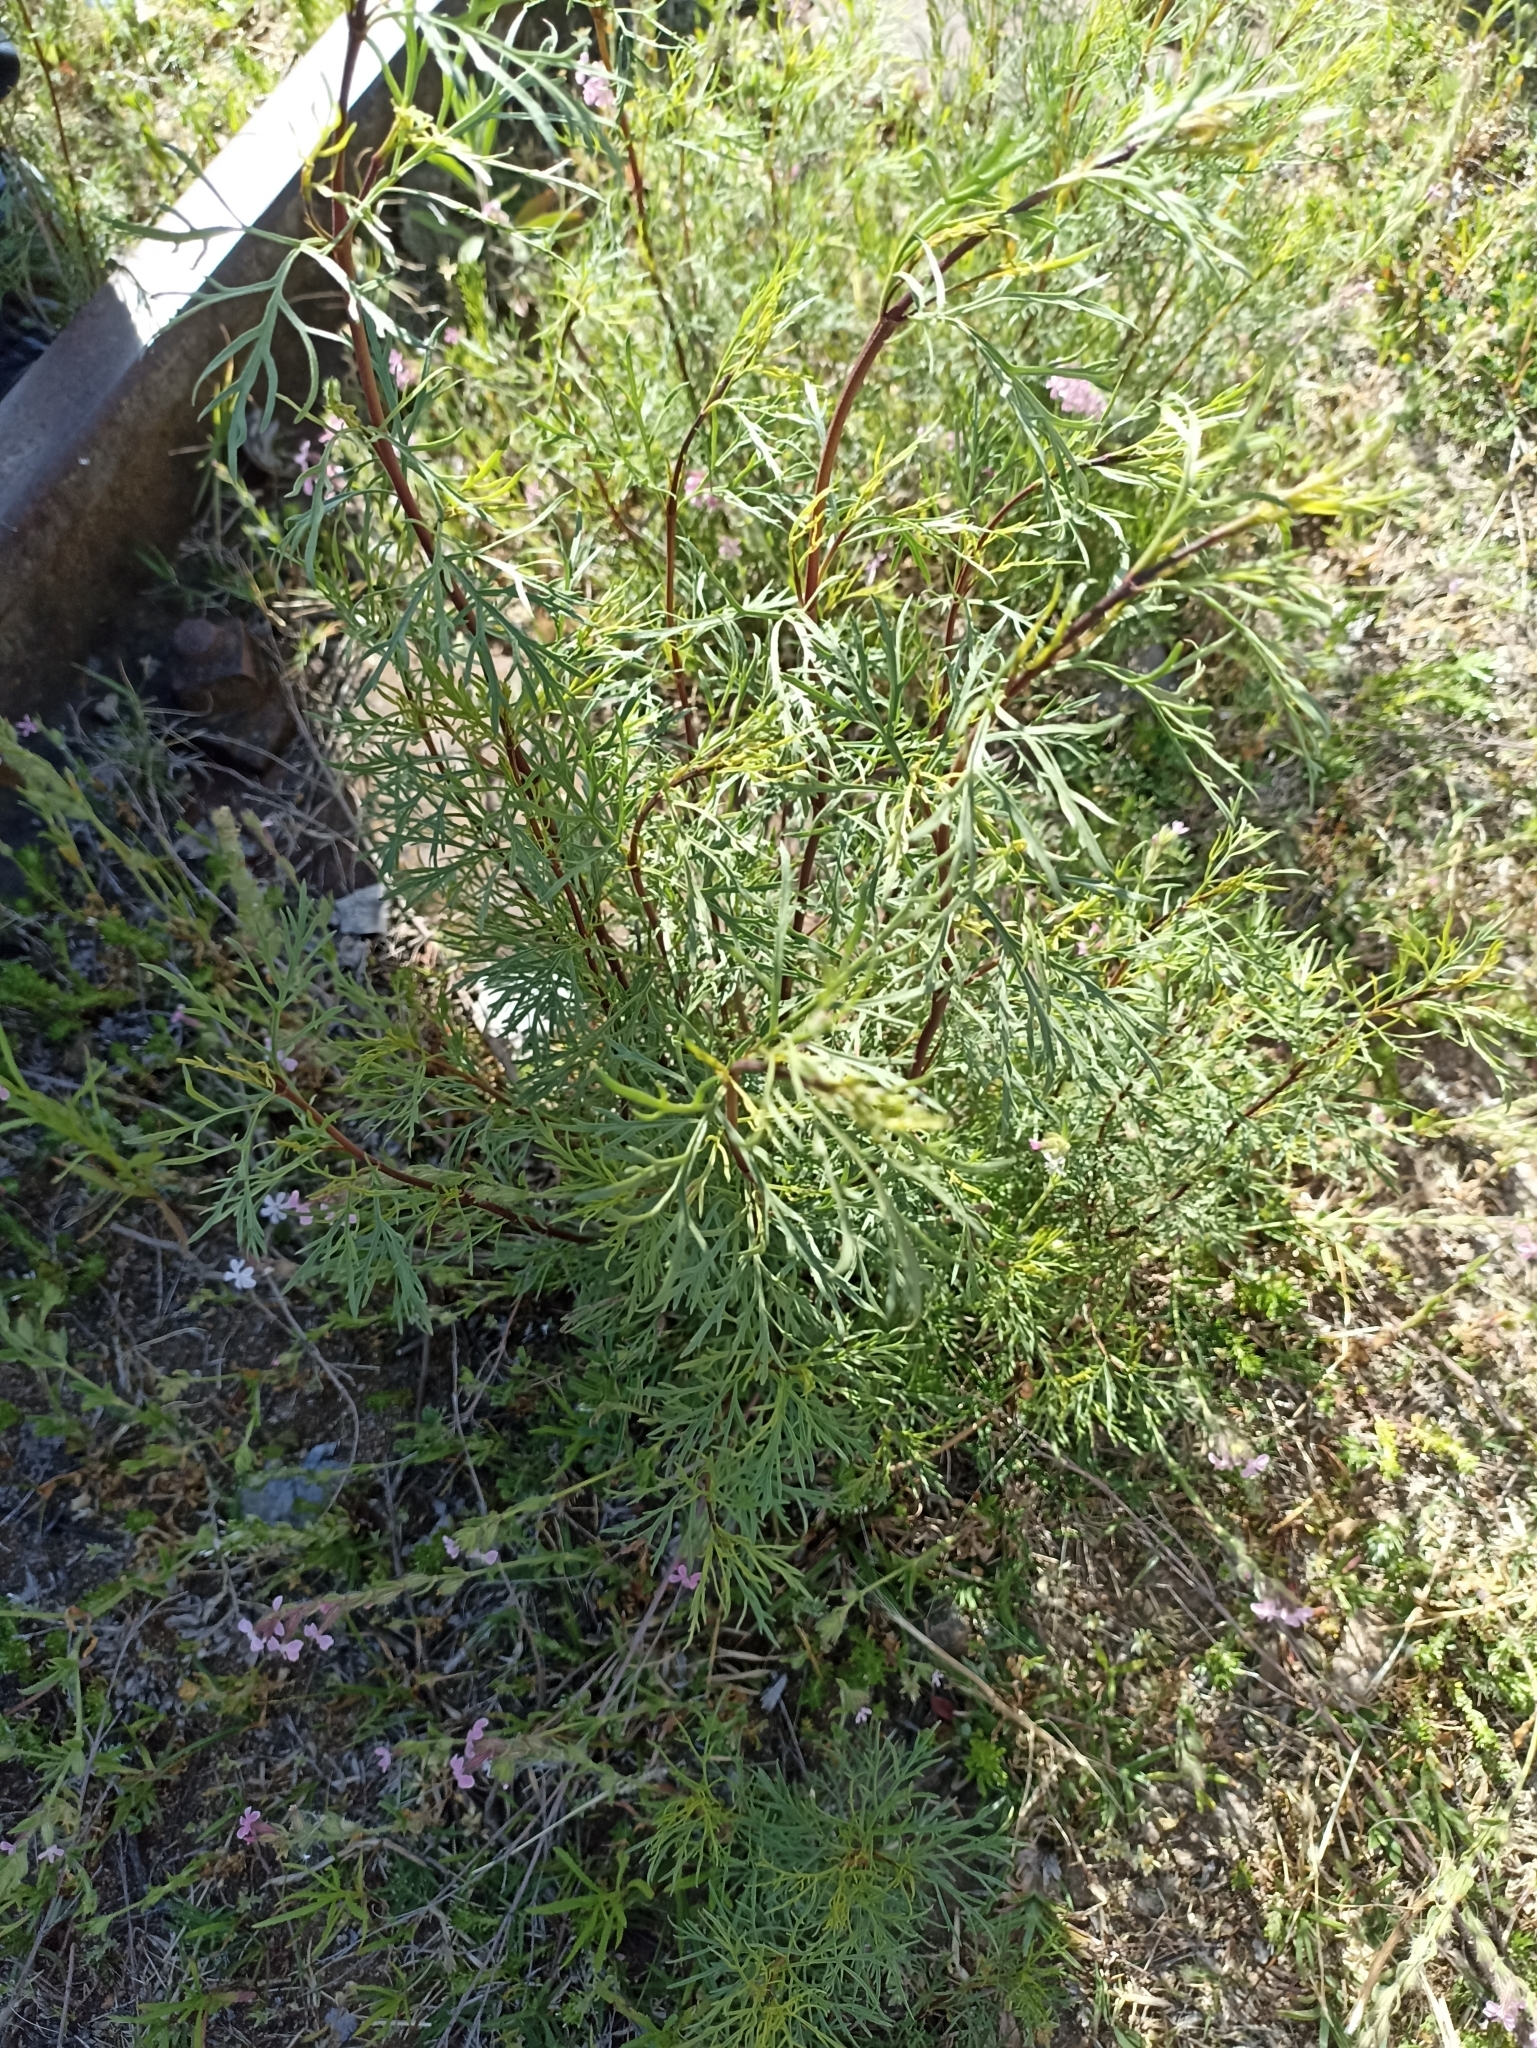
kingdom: Plantae
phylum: Tracheophyta
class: Magnoliopsida
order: Asterales
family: Asteraceae
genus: Acanthostyles
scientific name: Acanthostyles buniifolius
